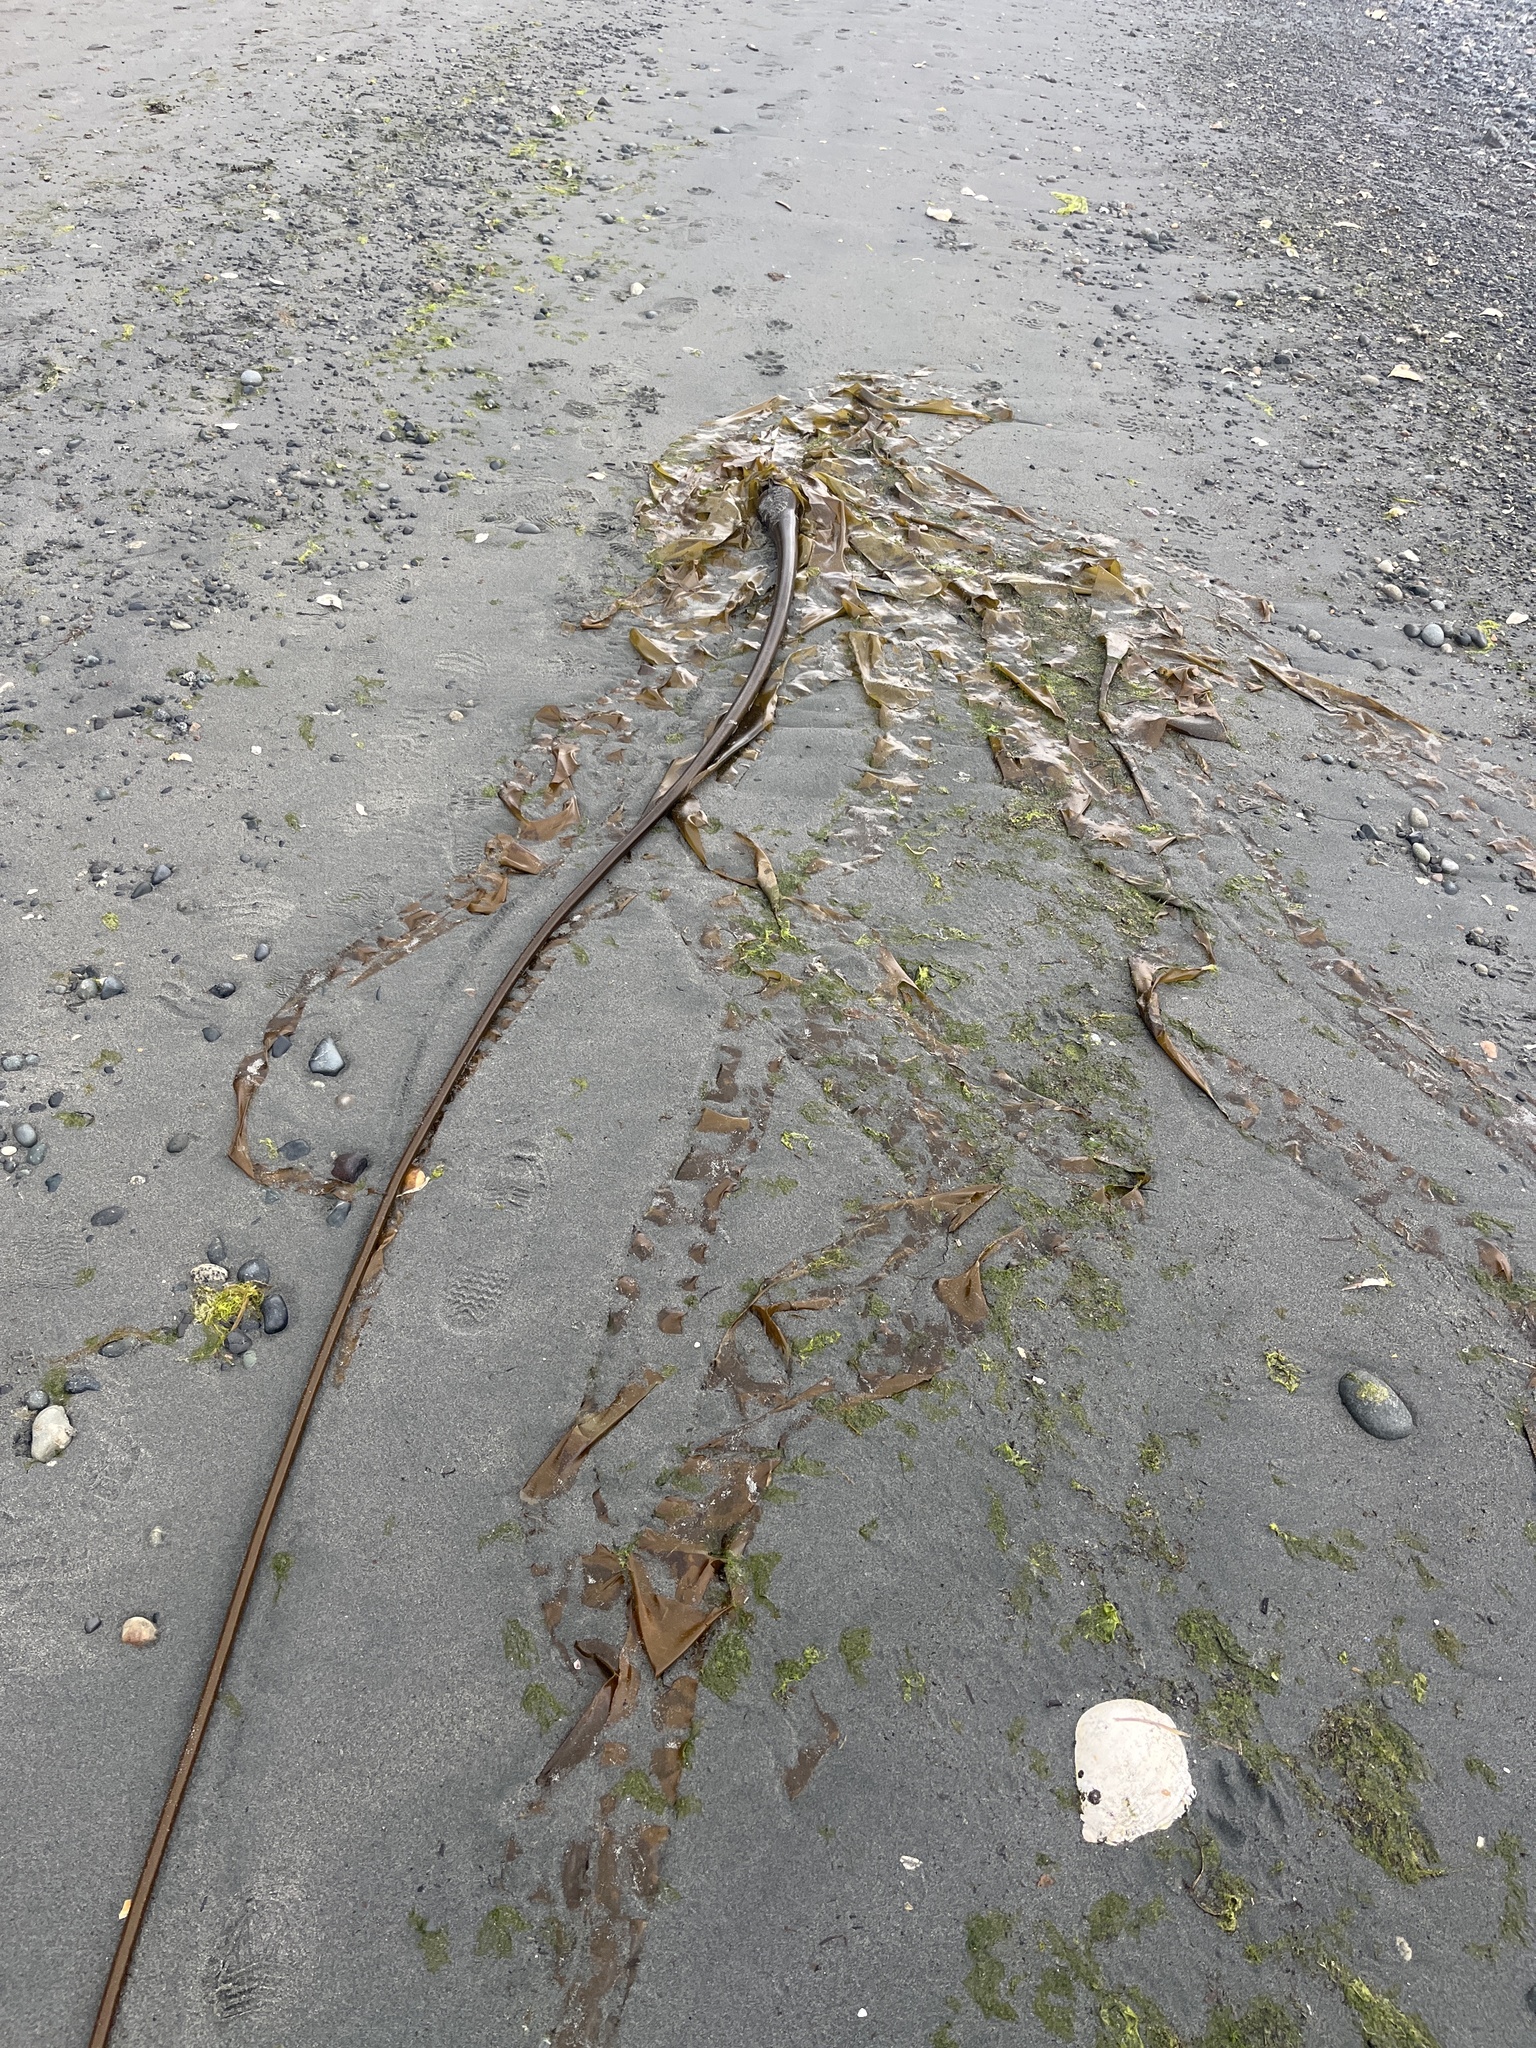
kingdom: Chromista
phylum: Ochrophyta
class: Phaeophyceae
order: Laminariales
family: Laminariaceae
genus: Nereocystis
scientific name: Nereocystis luetkeana
